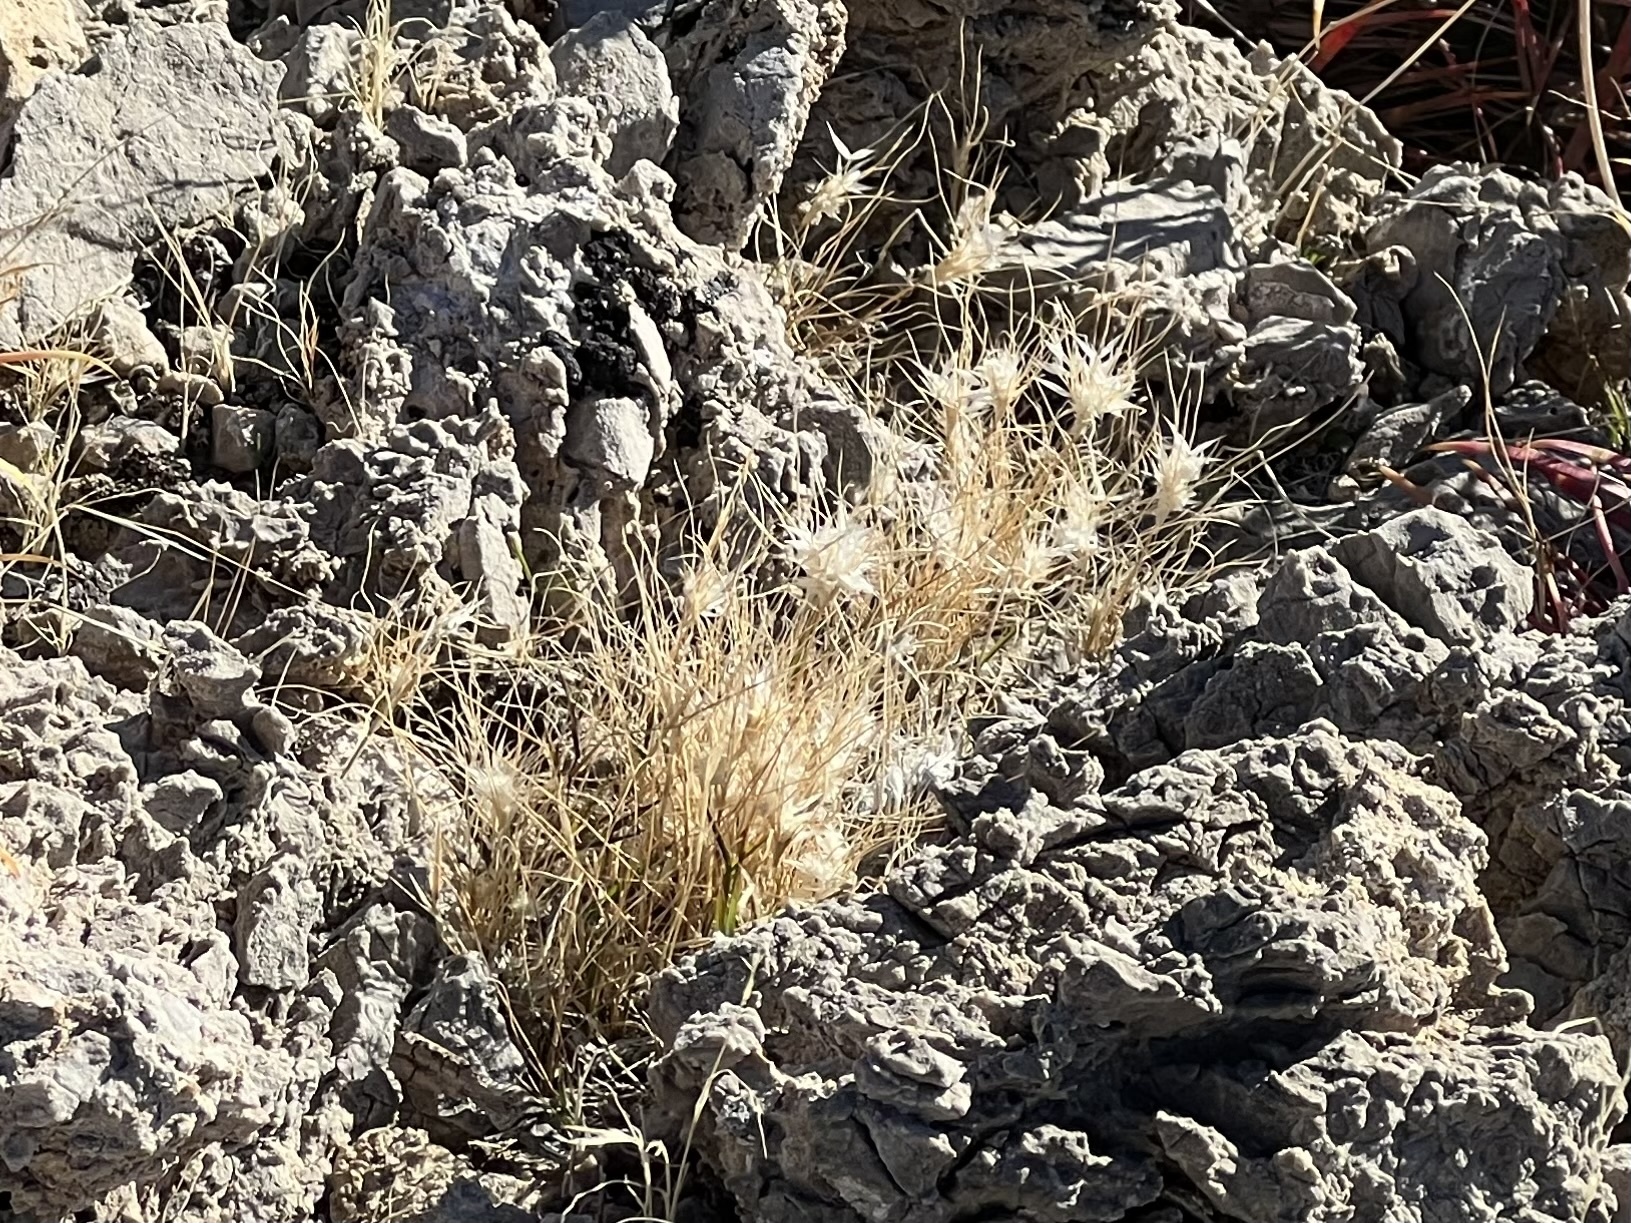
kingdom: Plantae
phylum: Tracheophyta
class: Liliopsida
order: Poales
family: Poaceae
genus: Bromus
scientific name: Bromus rubens
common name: Red brome
